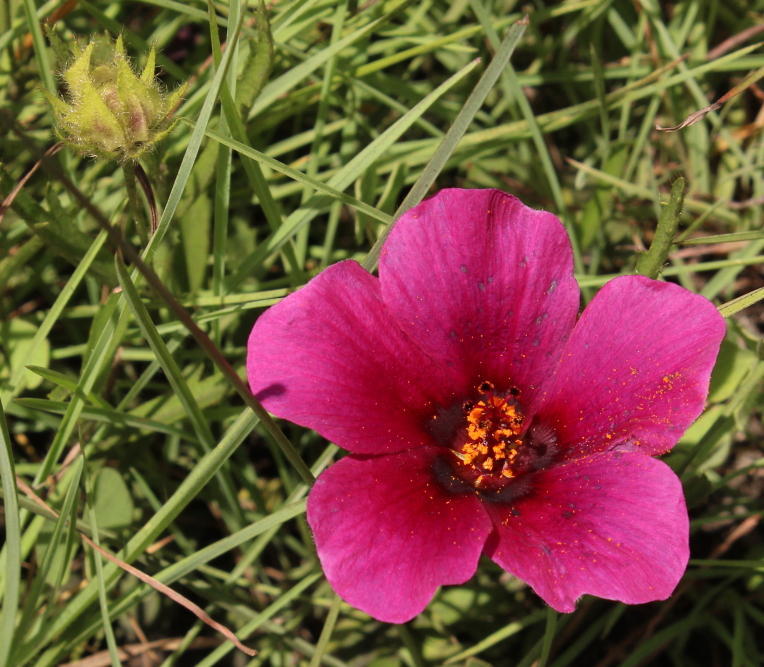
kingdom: Plantae
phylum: Tracheophyta
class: Magnoliopsida
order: Malvales
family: Malvaceae
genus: Hibiscus
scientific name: Hibiscus malacospermus
